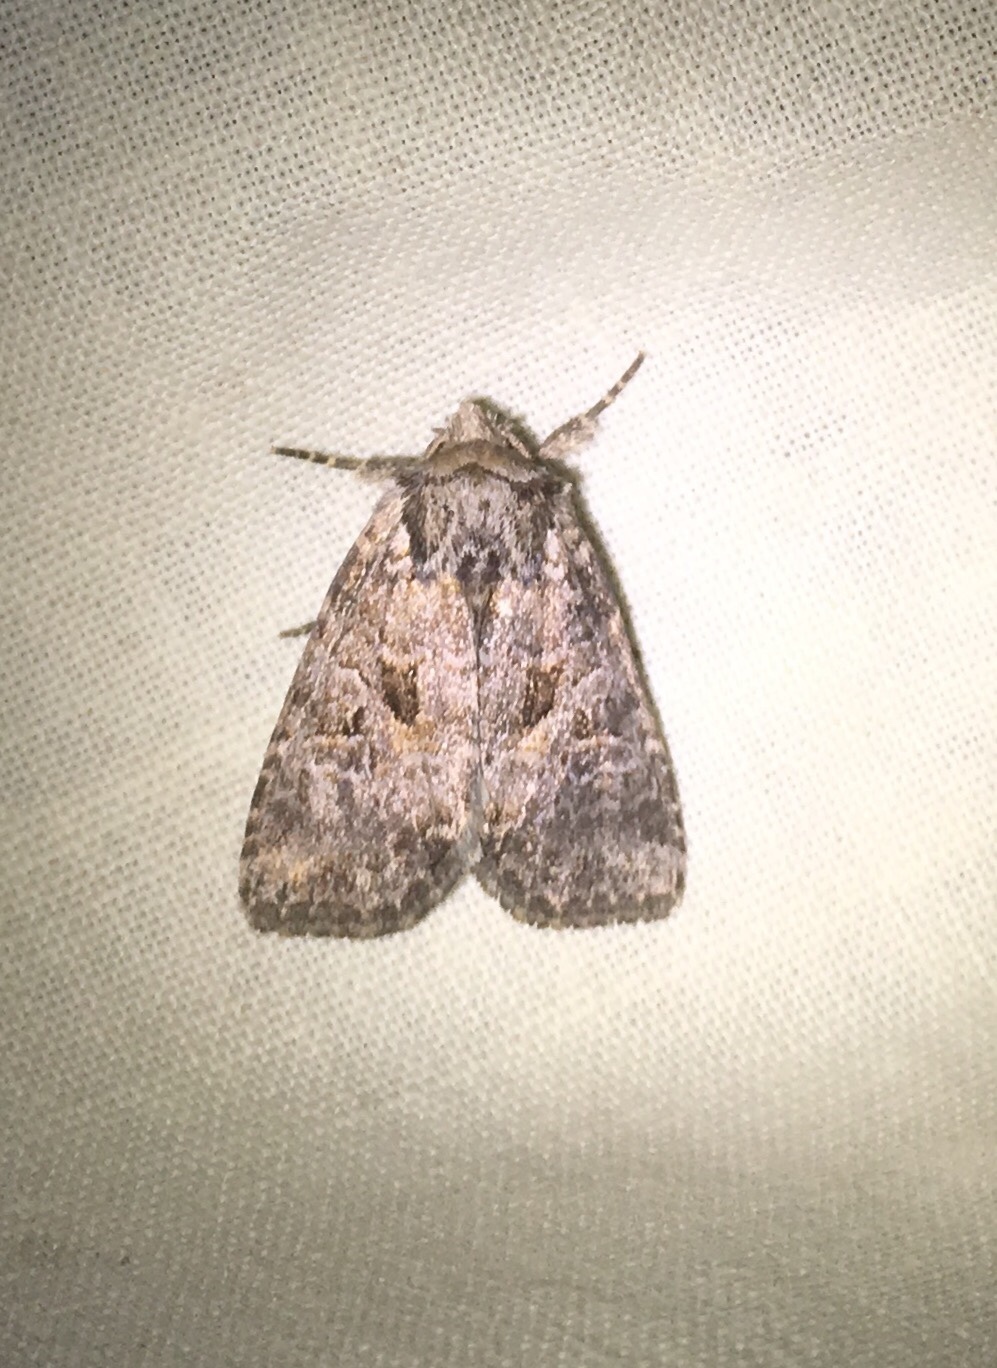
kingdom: Animalia
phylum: Arthropoda
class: Insecta
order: Lepidoptera
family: Noctuidae
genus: Orthodes
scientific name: Orthodes detracta
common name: Disparaged arches moth
